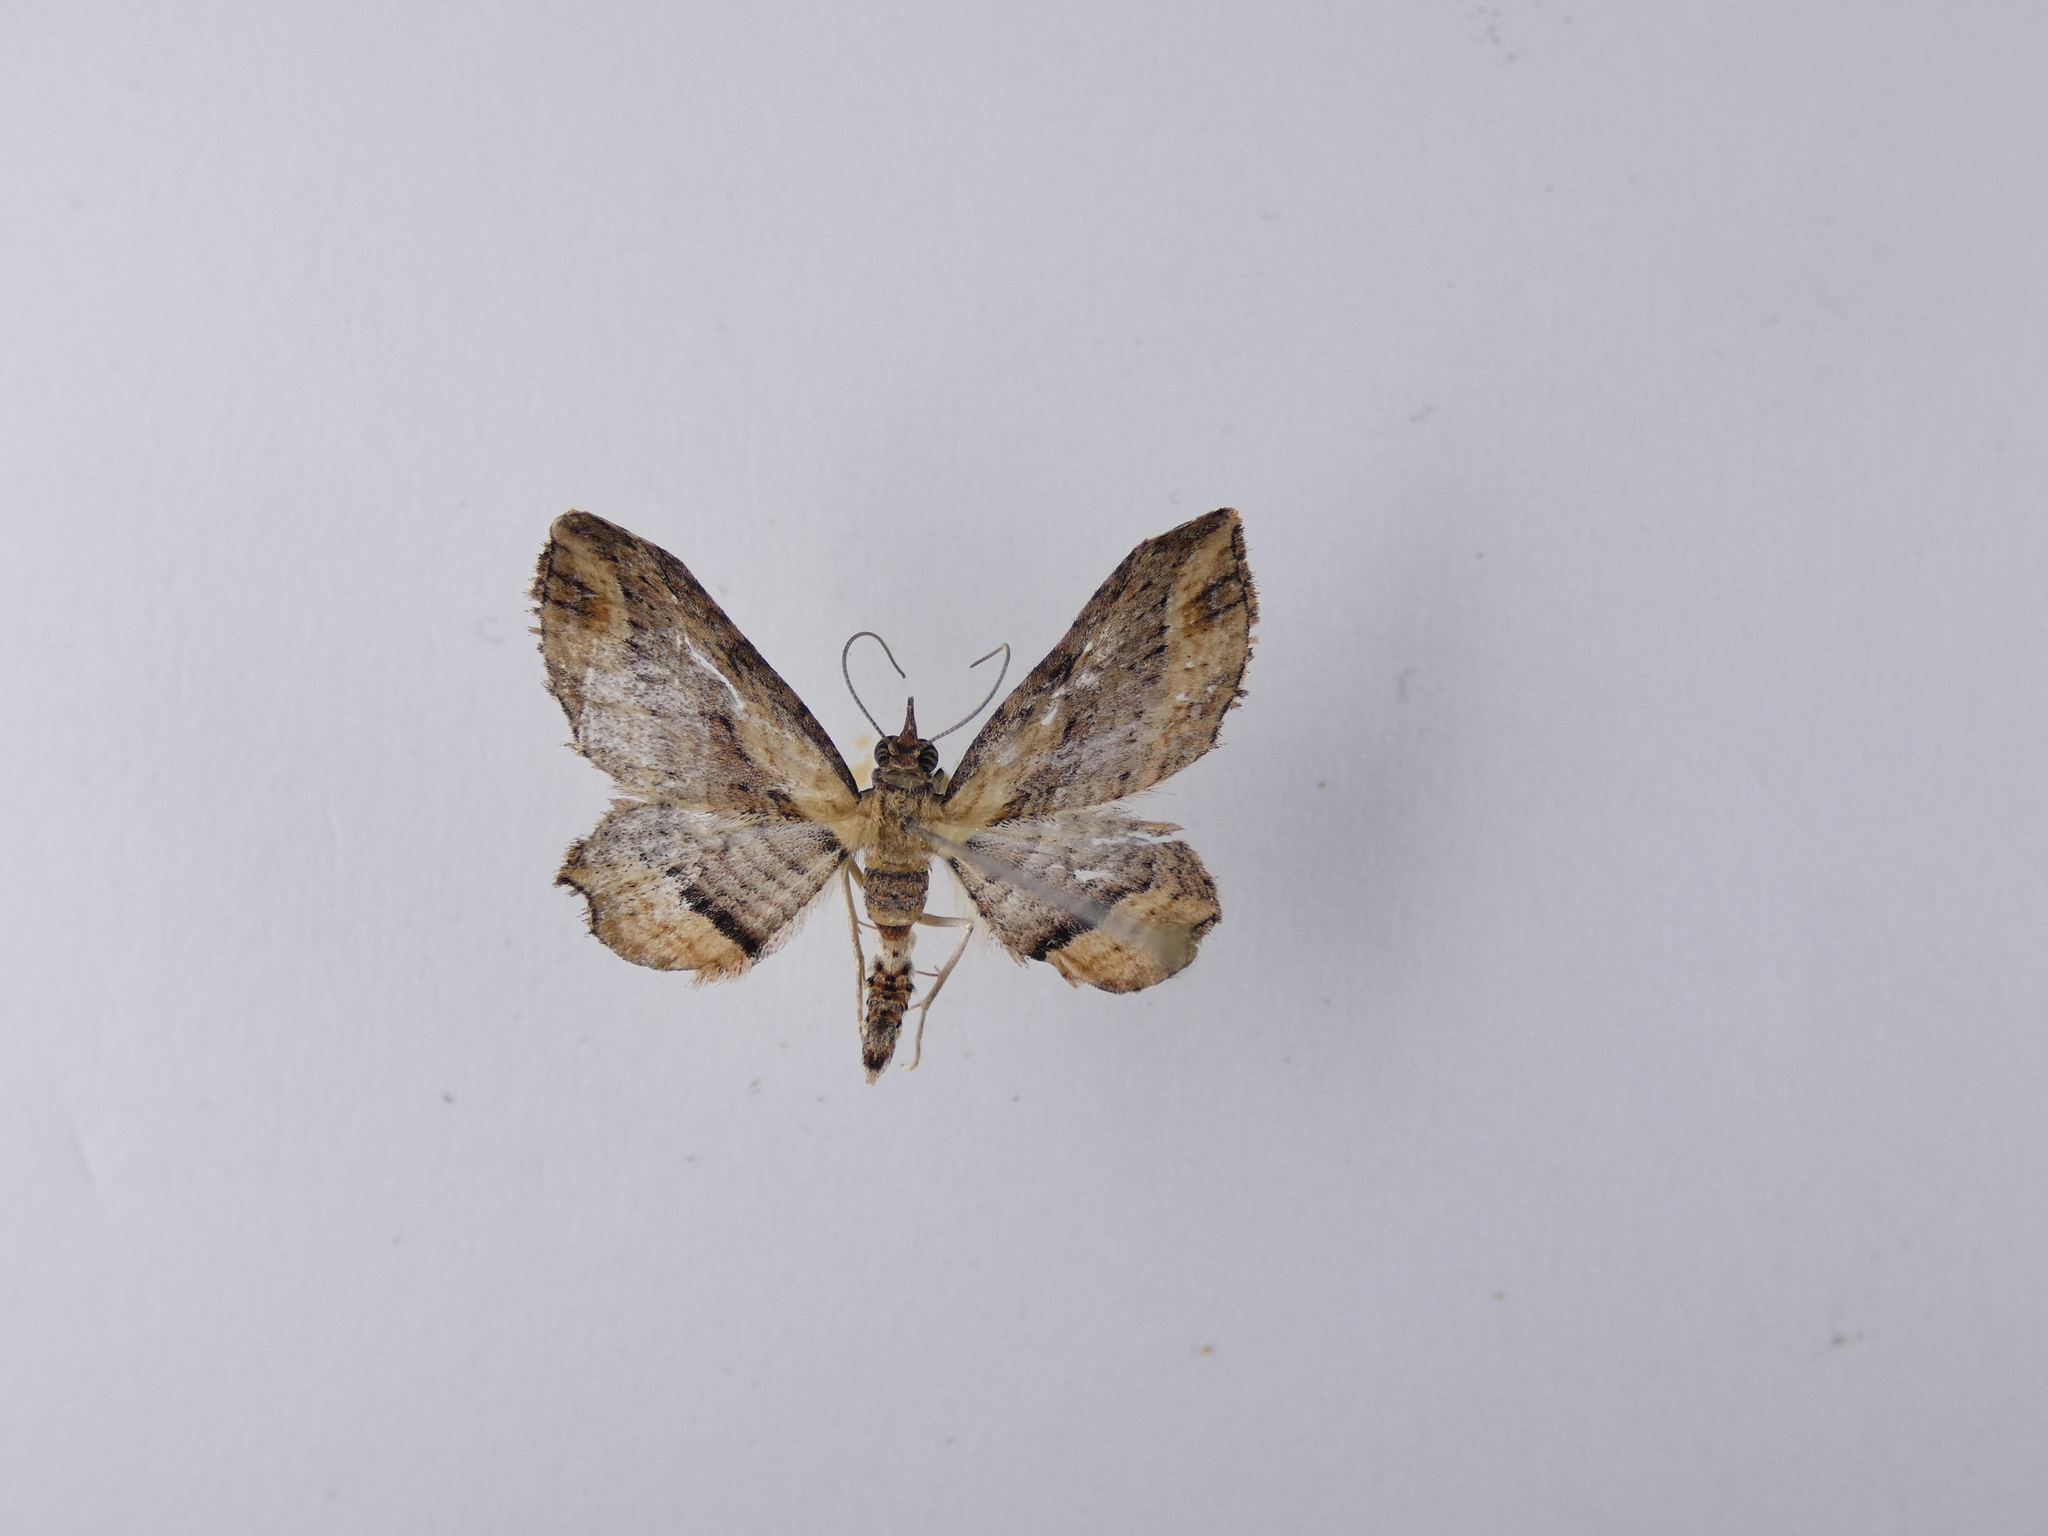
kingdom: Animalia
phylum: Arthropoda
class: Insecta
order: Lepidoptera
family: Geometridae
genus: Chloroclystis
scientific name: Chloroclystis filata
